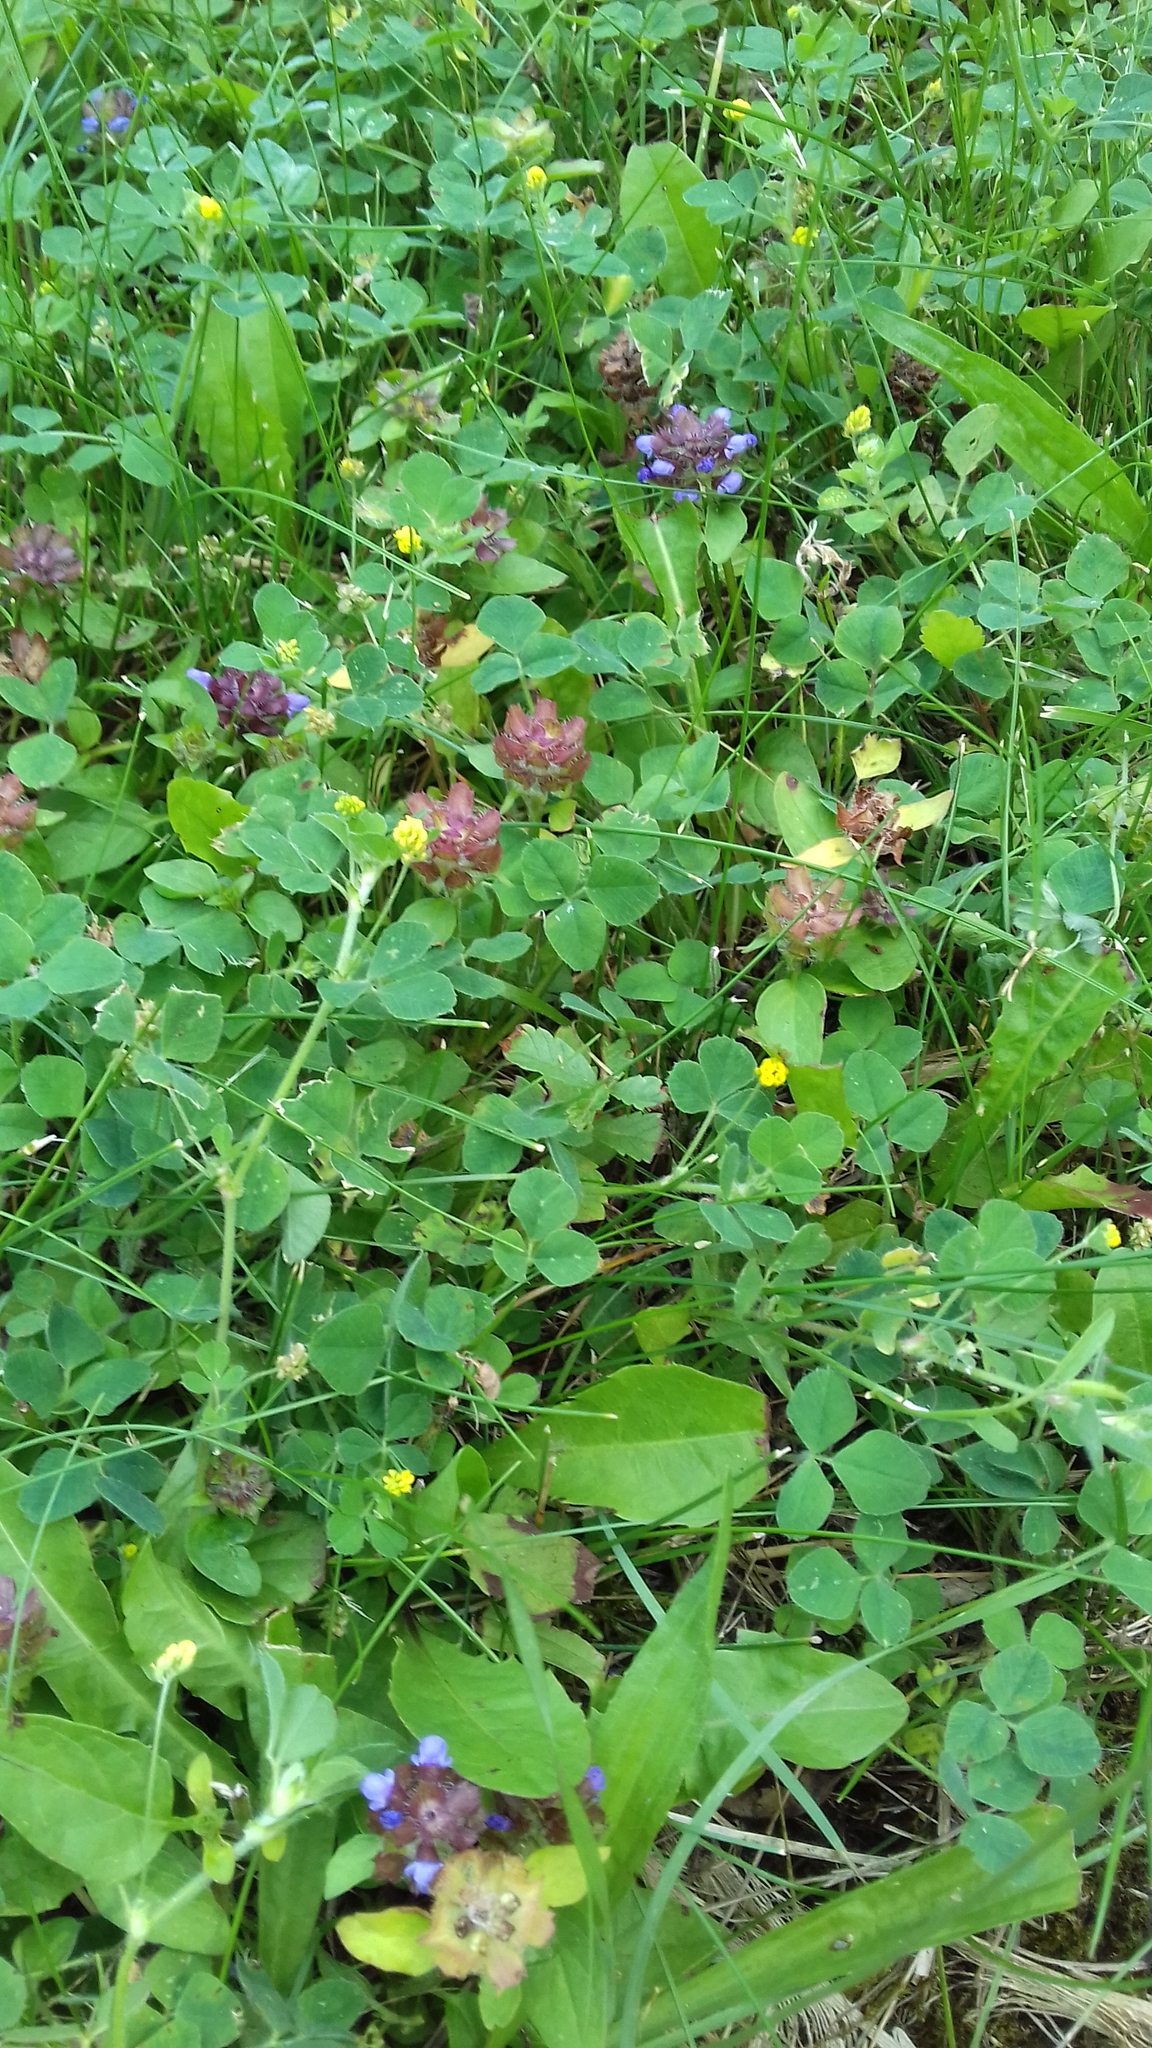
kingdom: Plantae
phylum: Tracheophyta
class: Magnoliopsida
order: Fabales
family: Fabaceae
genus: Medicago
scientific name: Medicago lupulina
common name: Black medick
